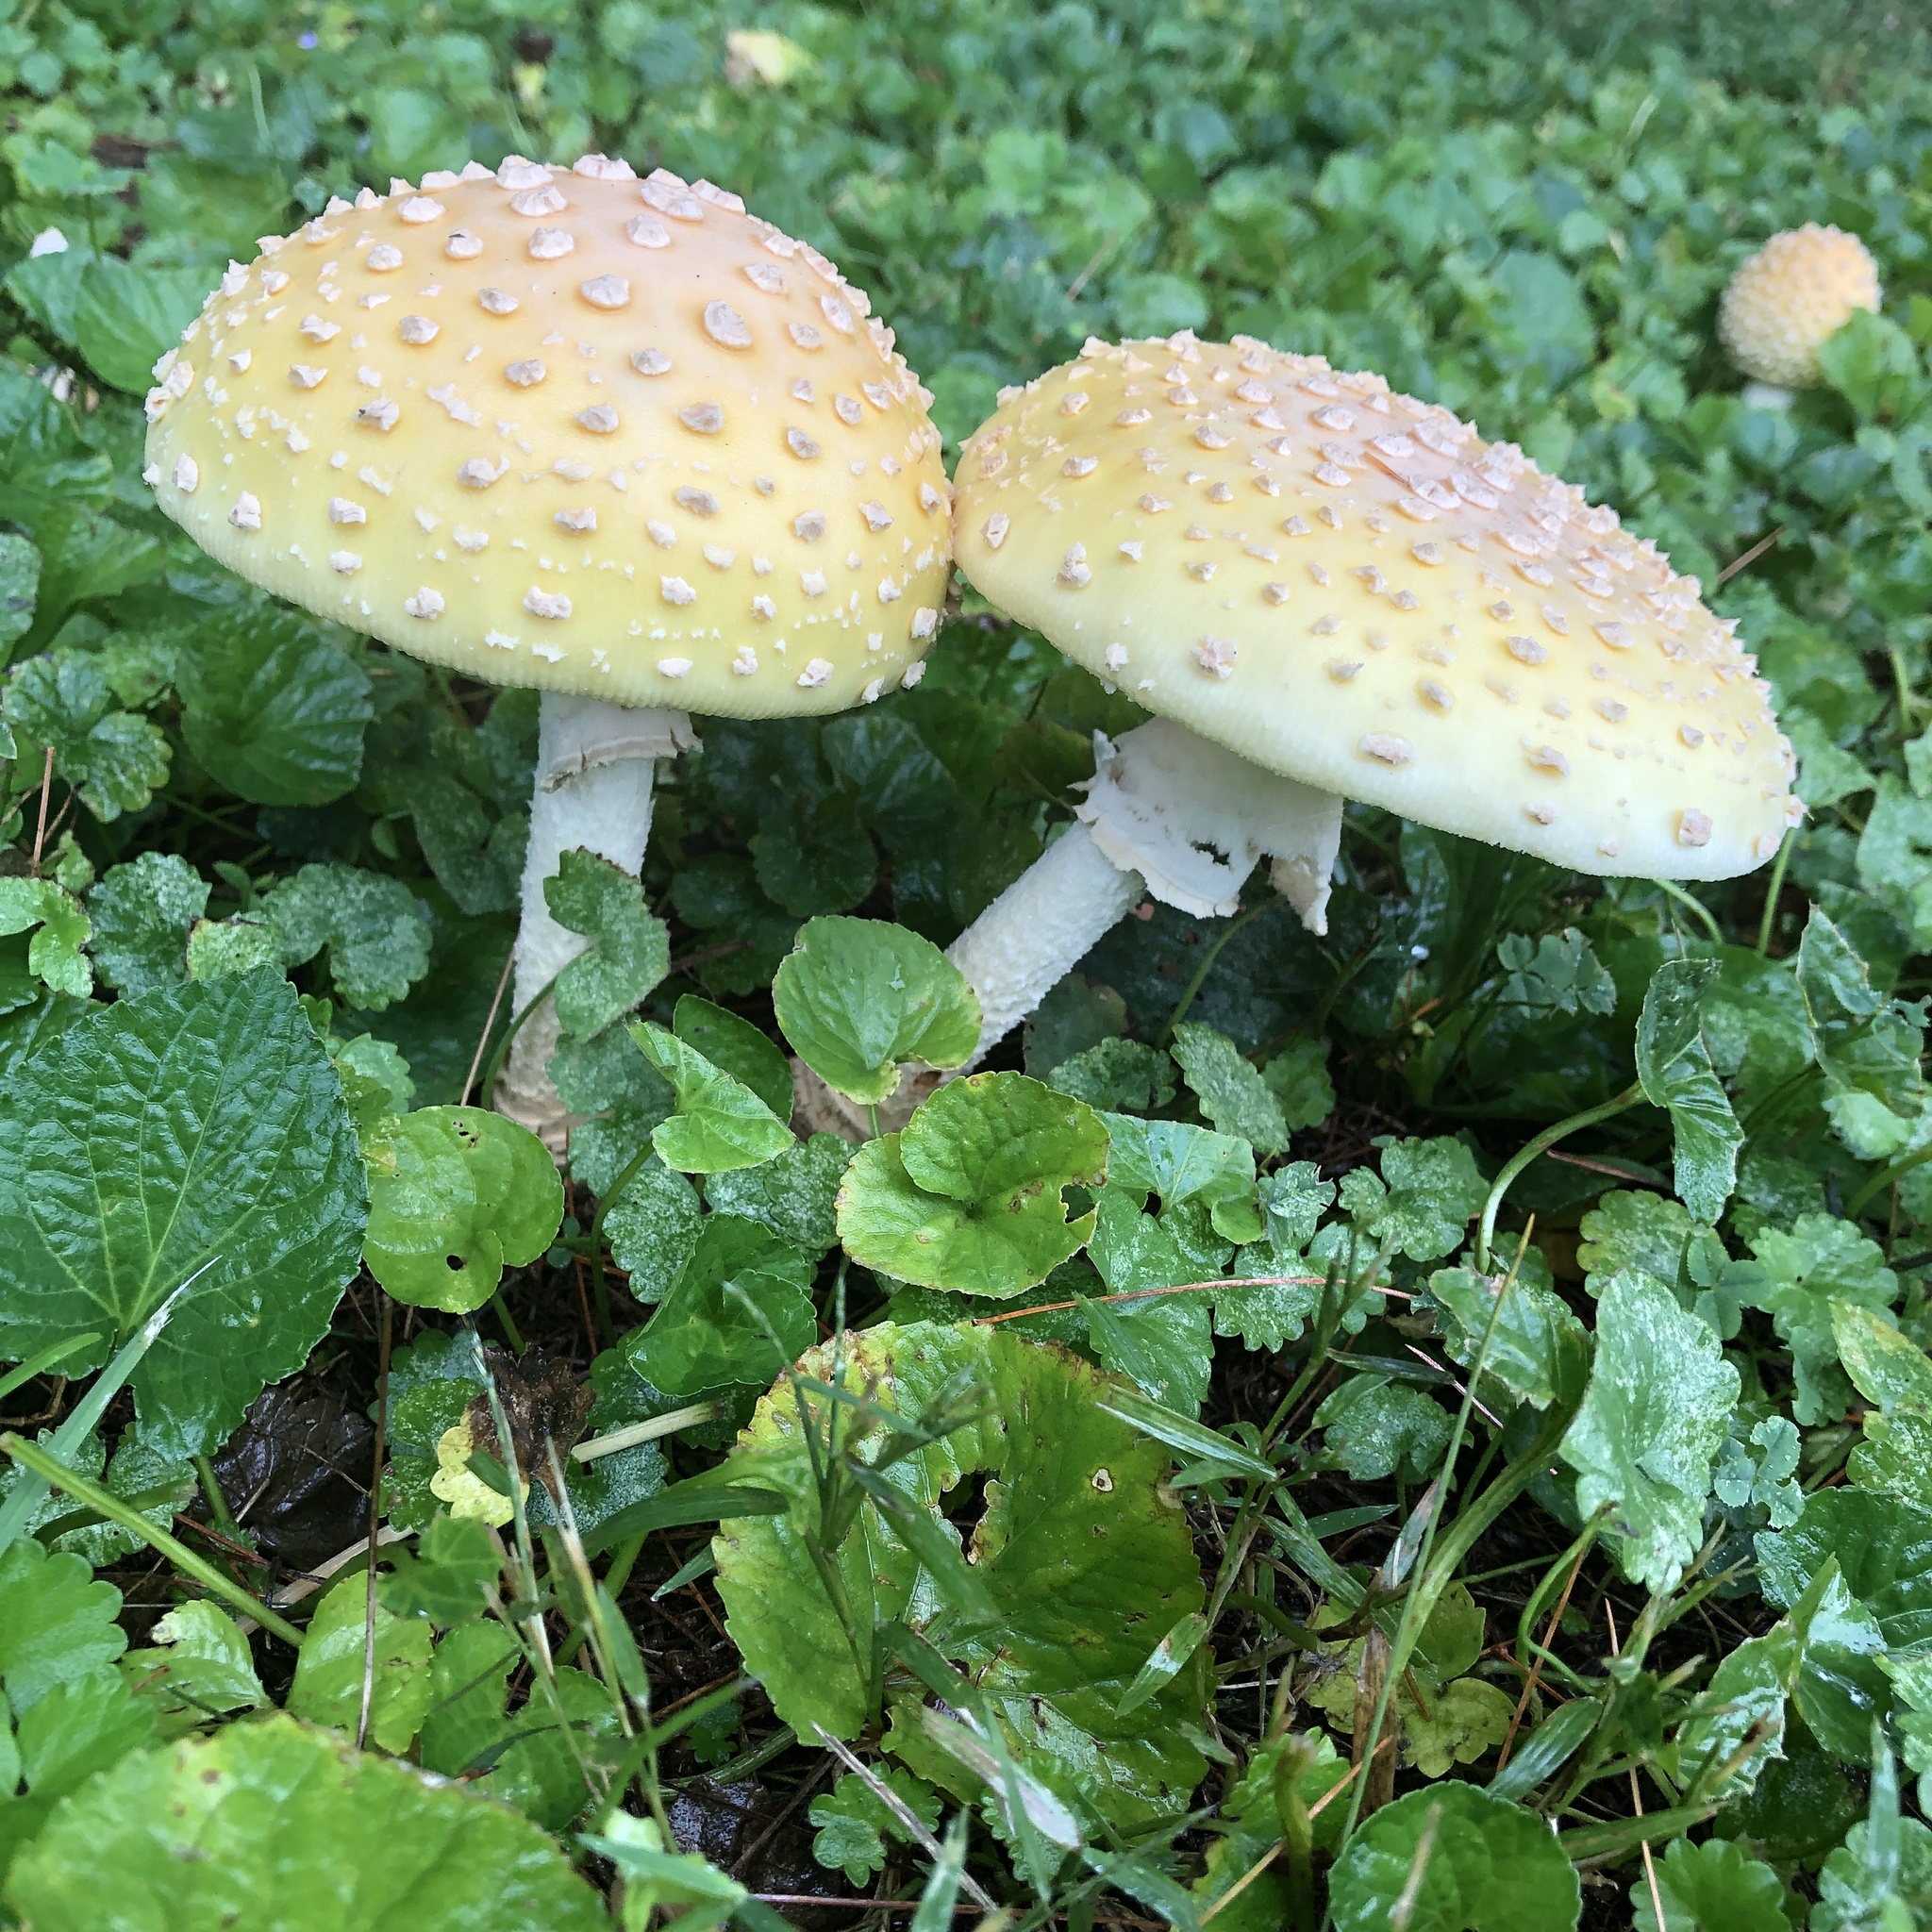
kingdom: Fungi
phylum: Basidiomycota
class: Agaricomycetes
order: Agaricales
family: Amanitaceae
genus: Amanita
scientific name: Amanita muscaria
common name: Fly agaric
